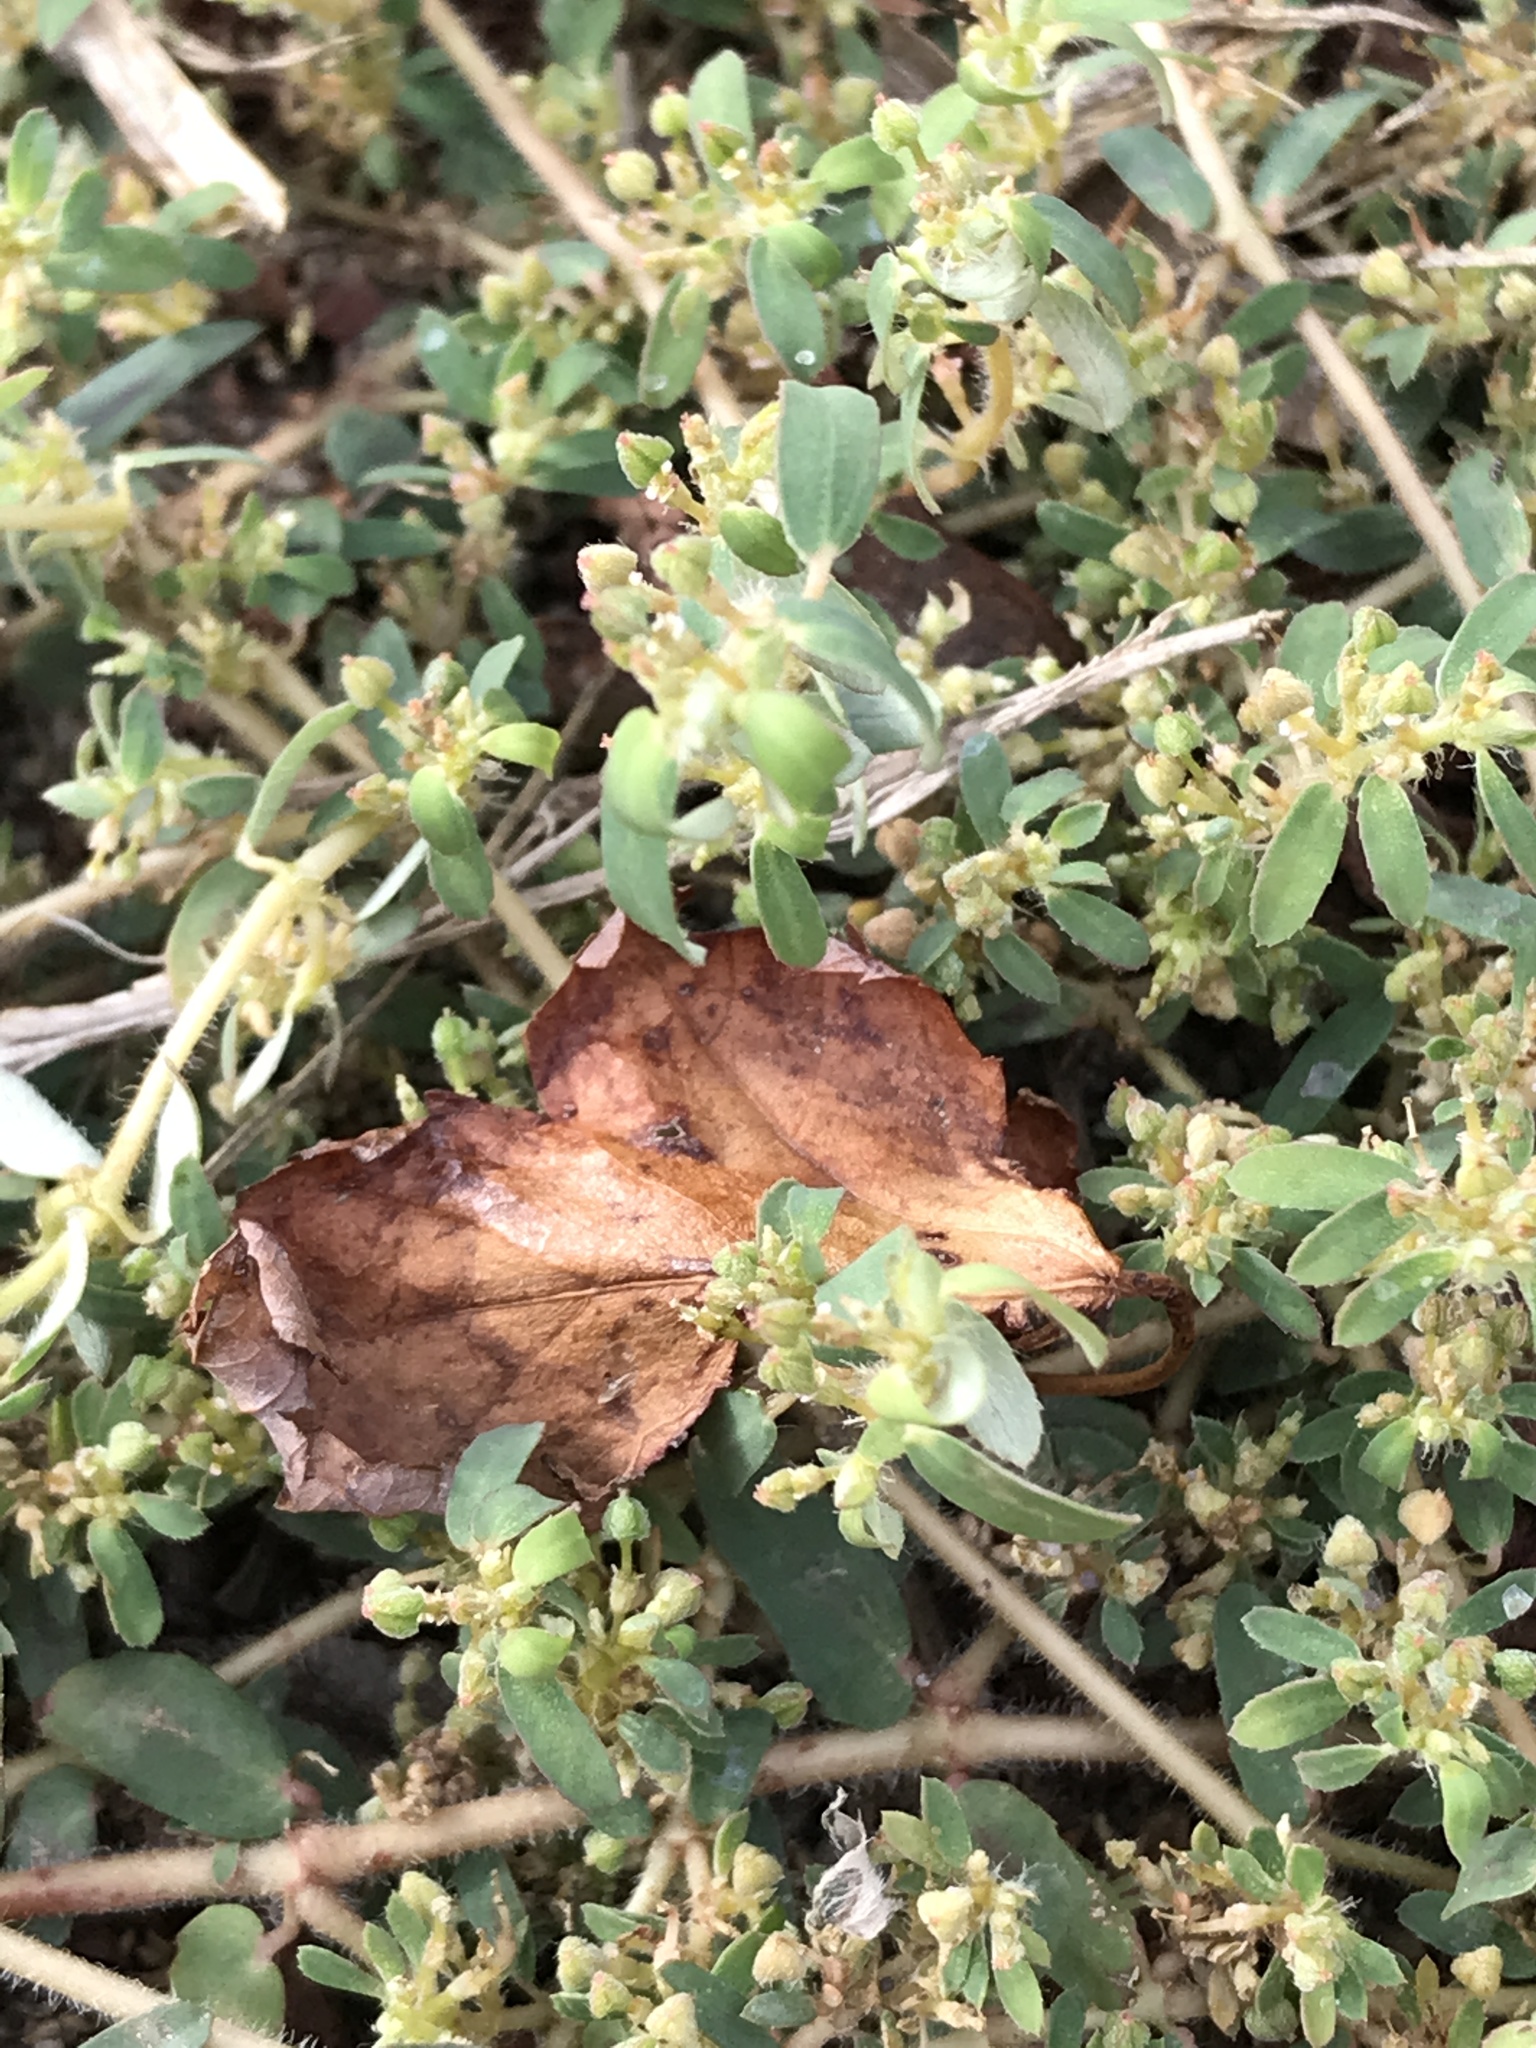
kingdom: Plantae
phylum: Tracheophyta
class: Magnoliopsida
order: Malpighiales
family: Euphorbiaceae
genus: Euphorbia
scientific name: Euphorbia maculata
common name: Spotted spurge
